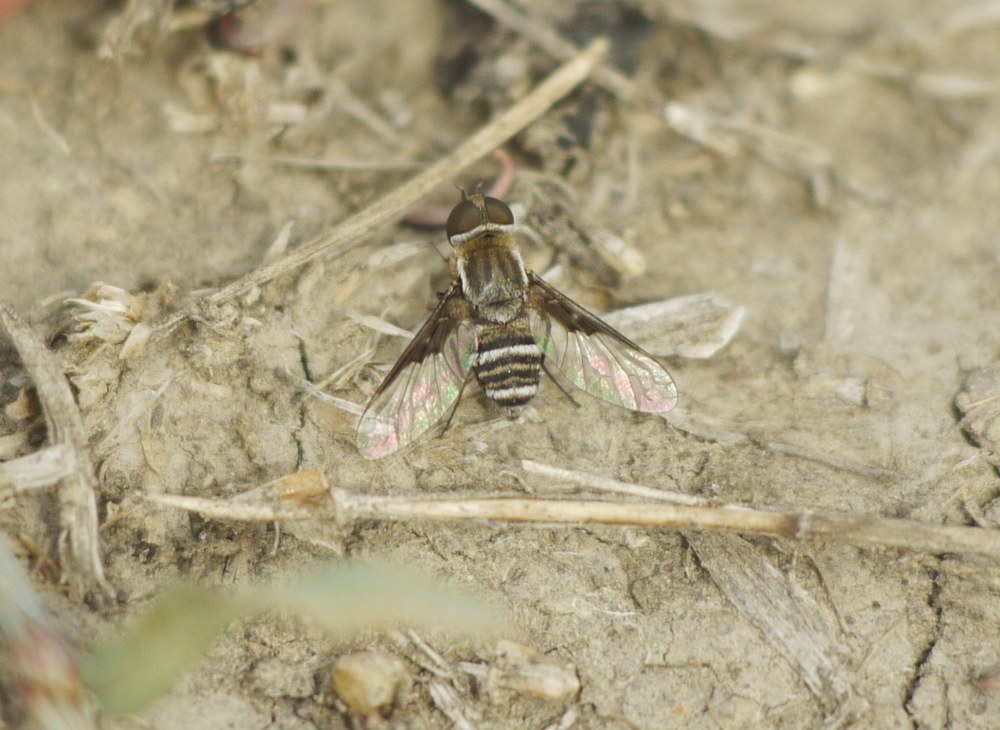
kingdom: Animalia
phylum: Arthropoda
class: Insecta
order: Diptera
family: Bombyliidae
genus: Exhyalanthrax
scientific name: Exhyalanthrax afer
